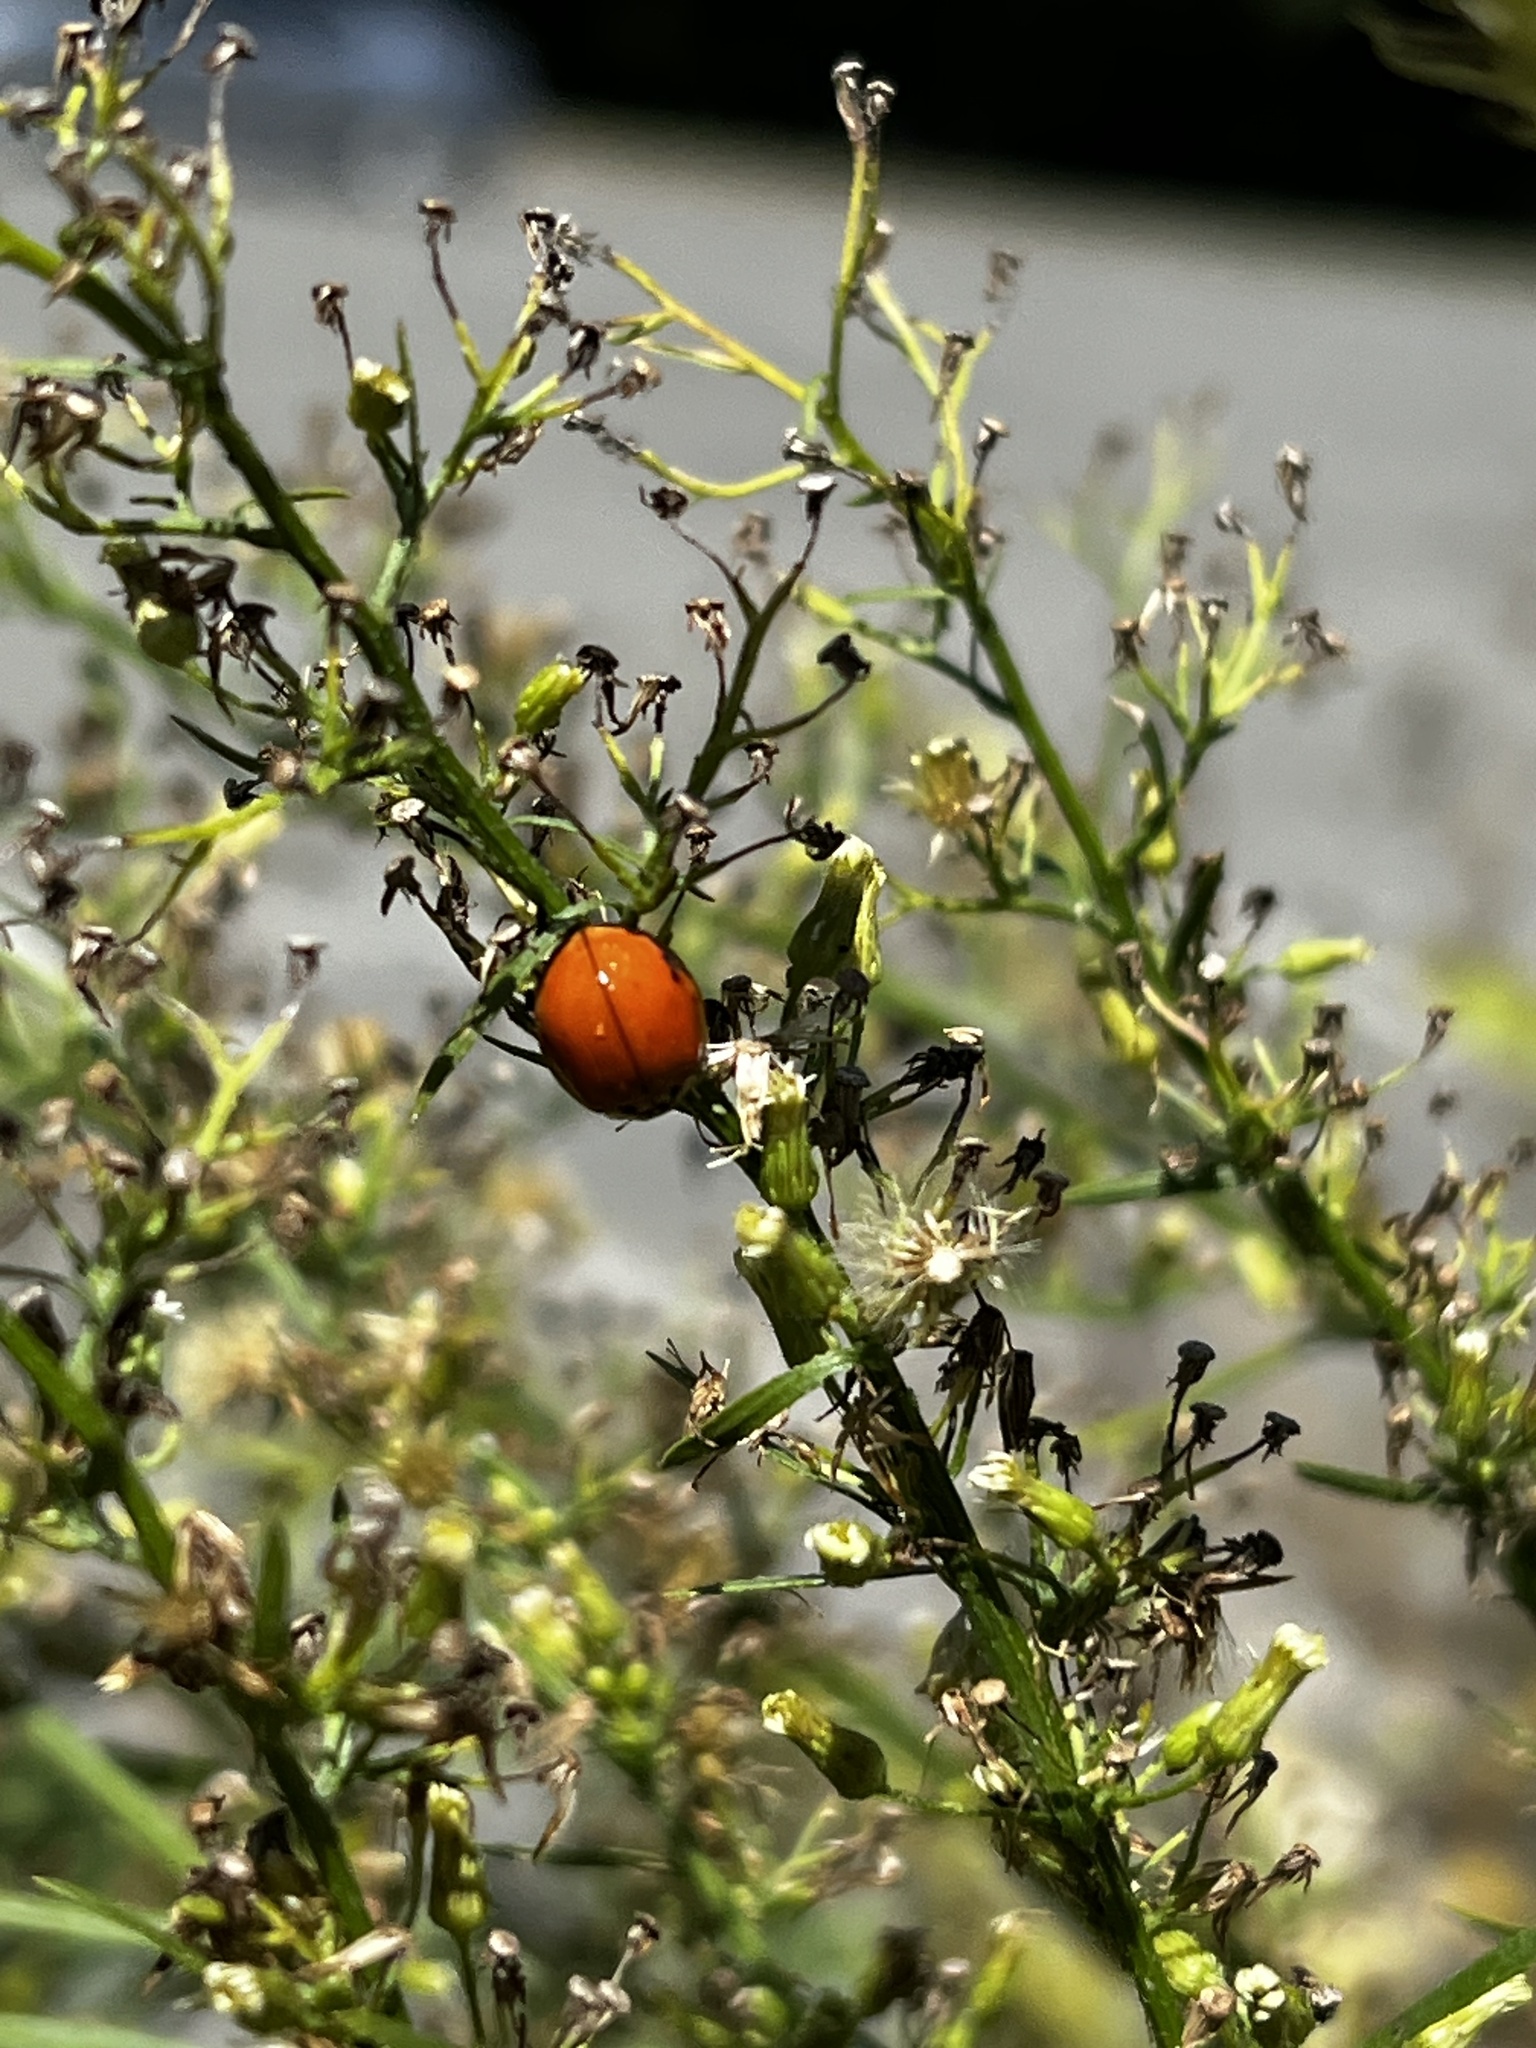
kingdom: Animalia
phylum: Arthropoda
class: Insecta
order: Coleoptera
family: Coccinellidae
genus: Harmonia
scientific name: Harmonia axyridis
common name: Harlequin ladybird
